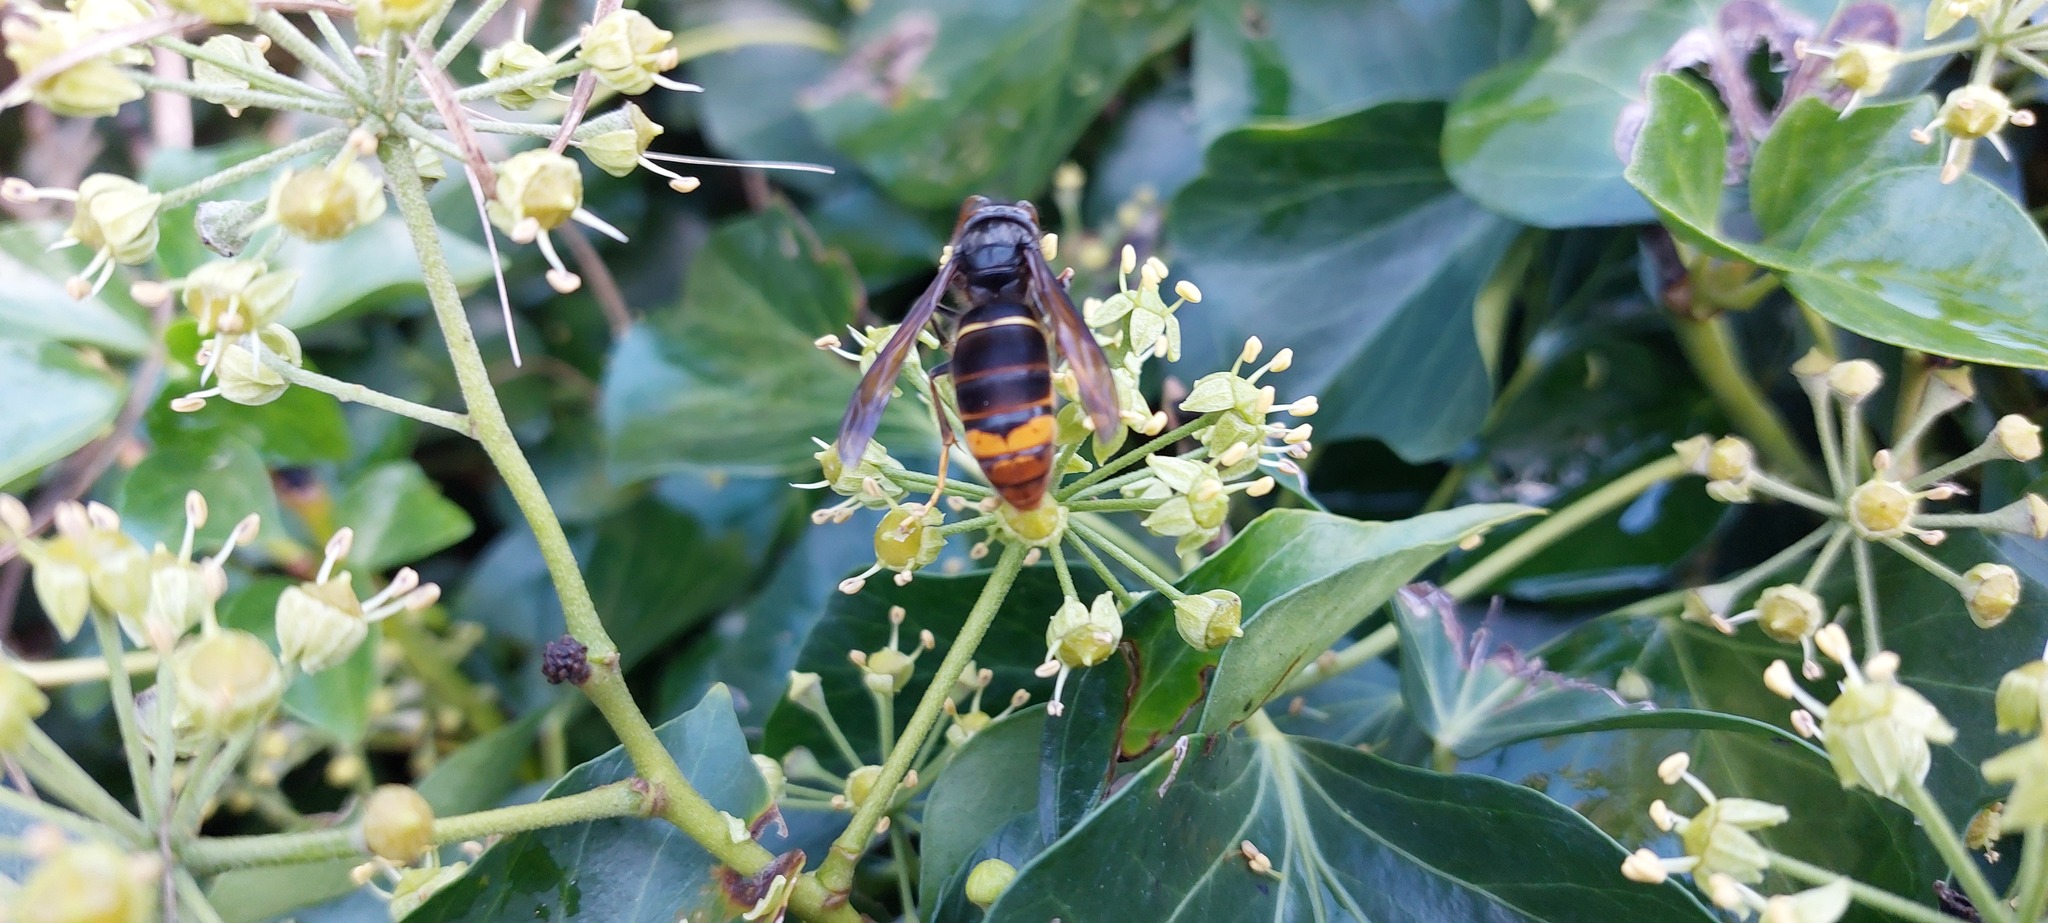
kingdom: Animalia
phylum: Arthropoda
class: Insecta
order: Hymenoptera
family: Vespidae
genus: Vespa
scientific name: Vespa velutina
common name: Asian hornet
